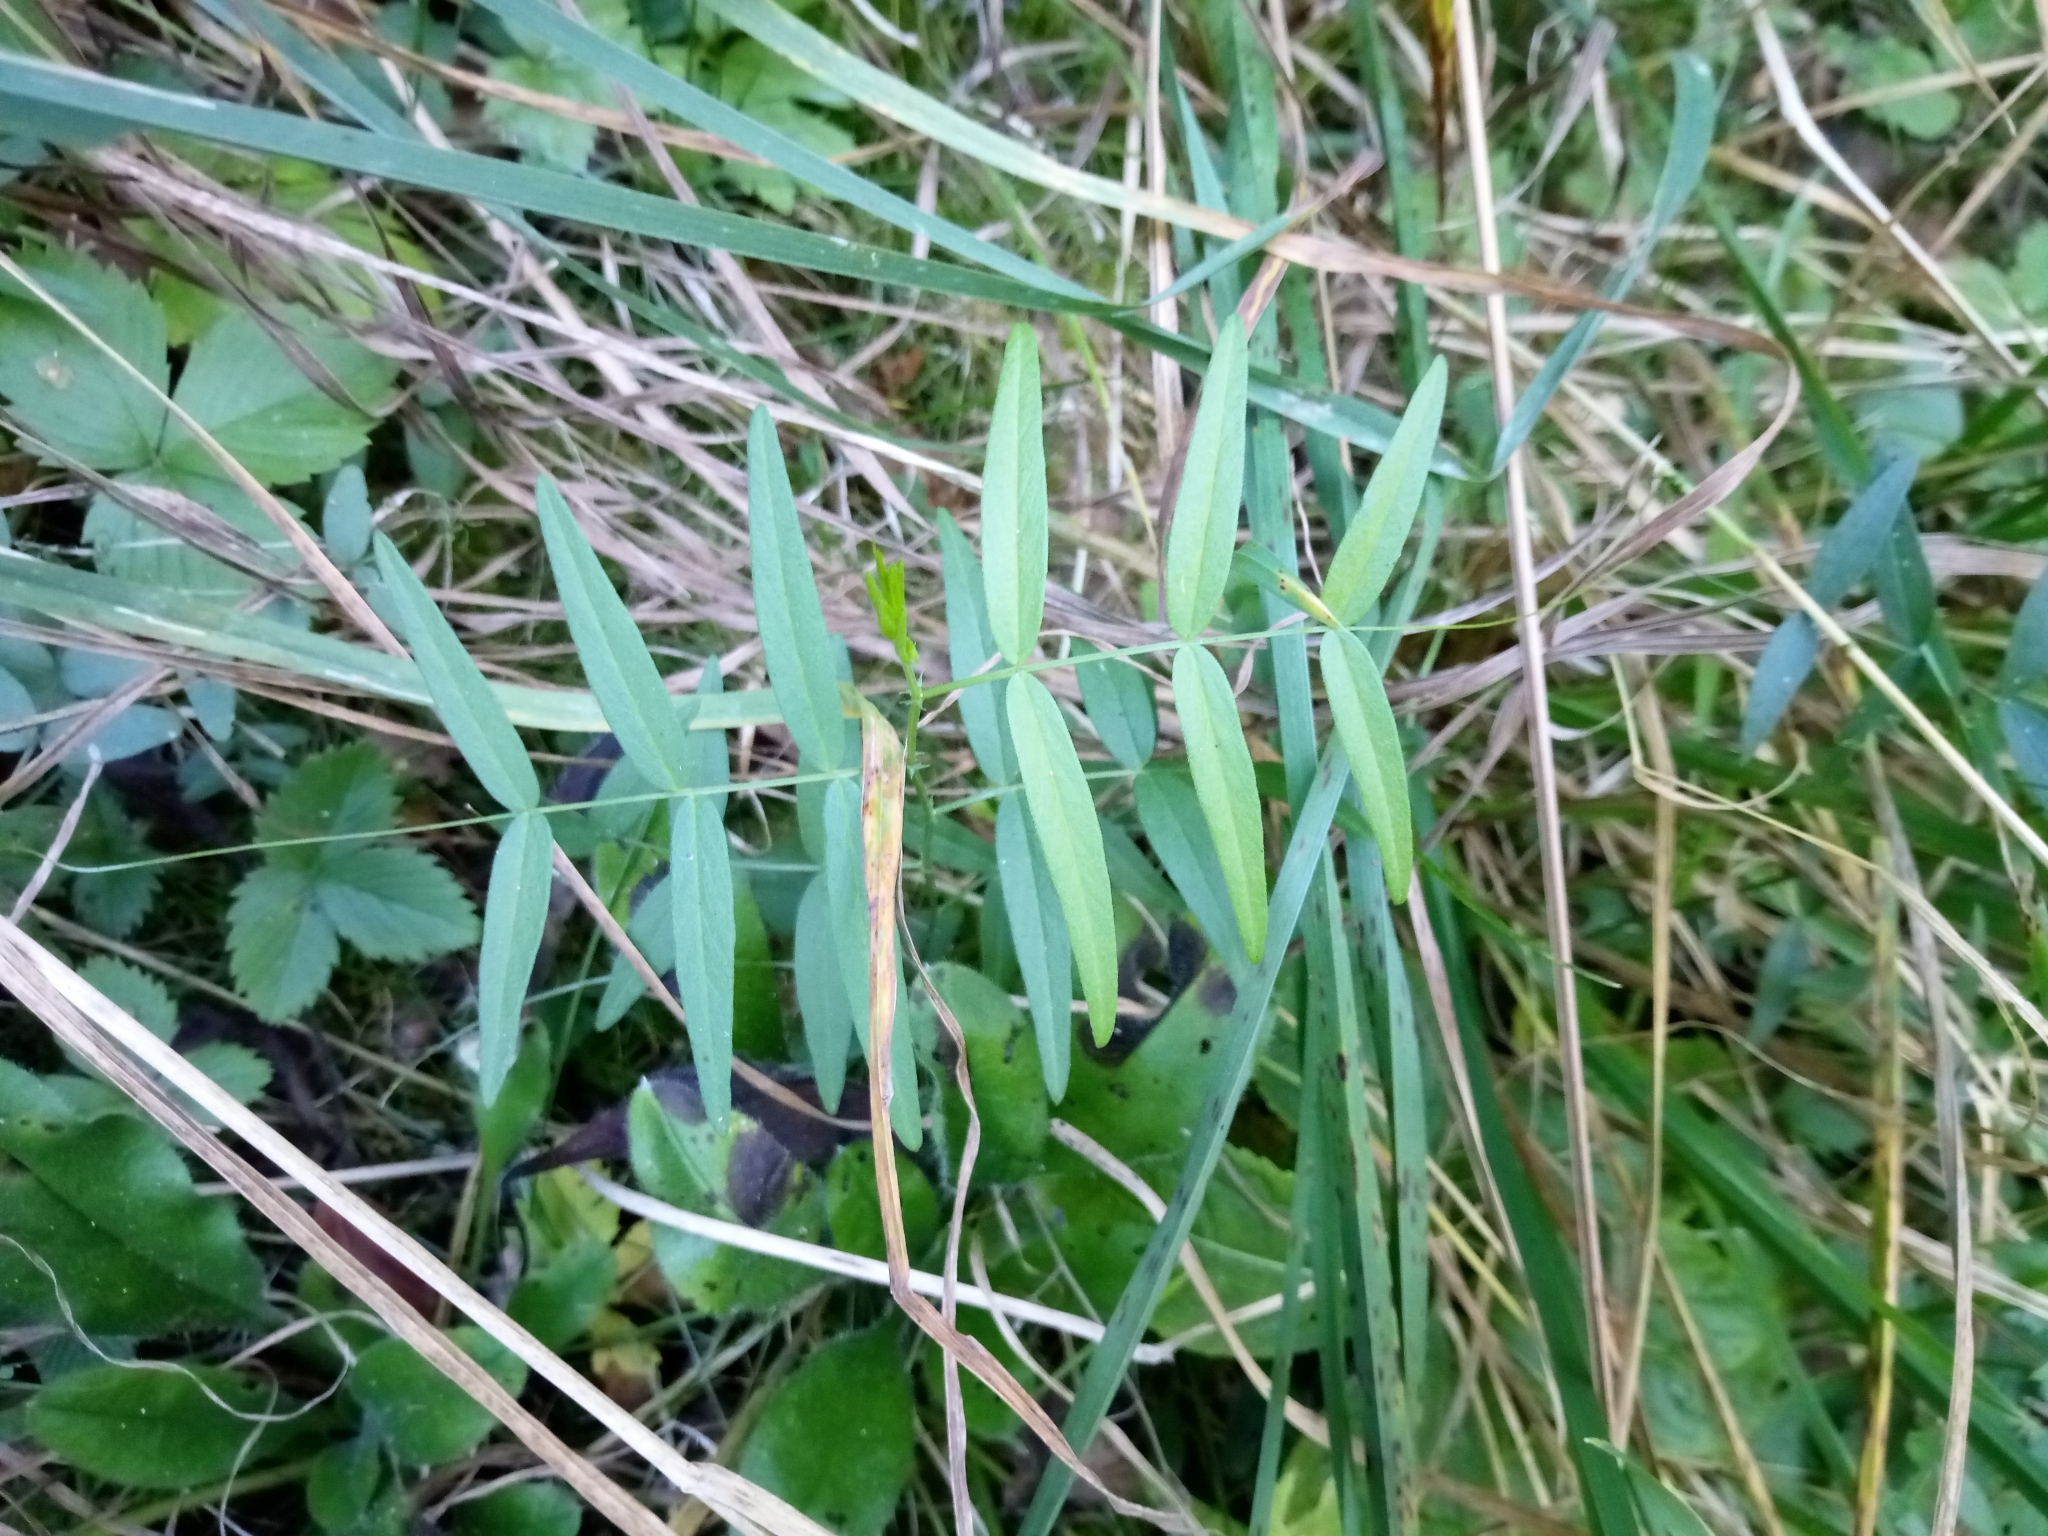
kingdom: Plantae
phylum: Tracheophyta
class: Magnoliopsida
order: Fabales
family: Fabaceae
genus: Vicia
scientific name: Vicia sativa
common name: Garden vetch
